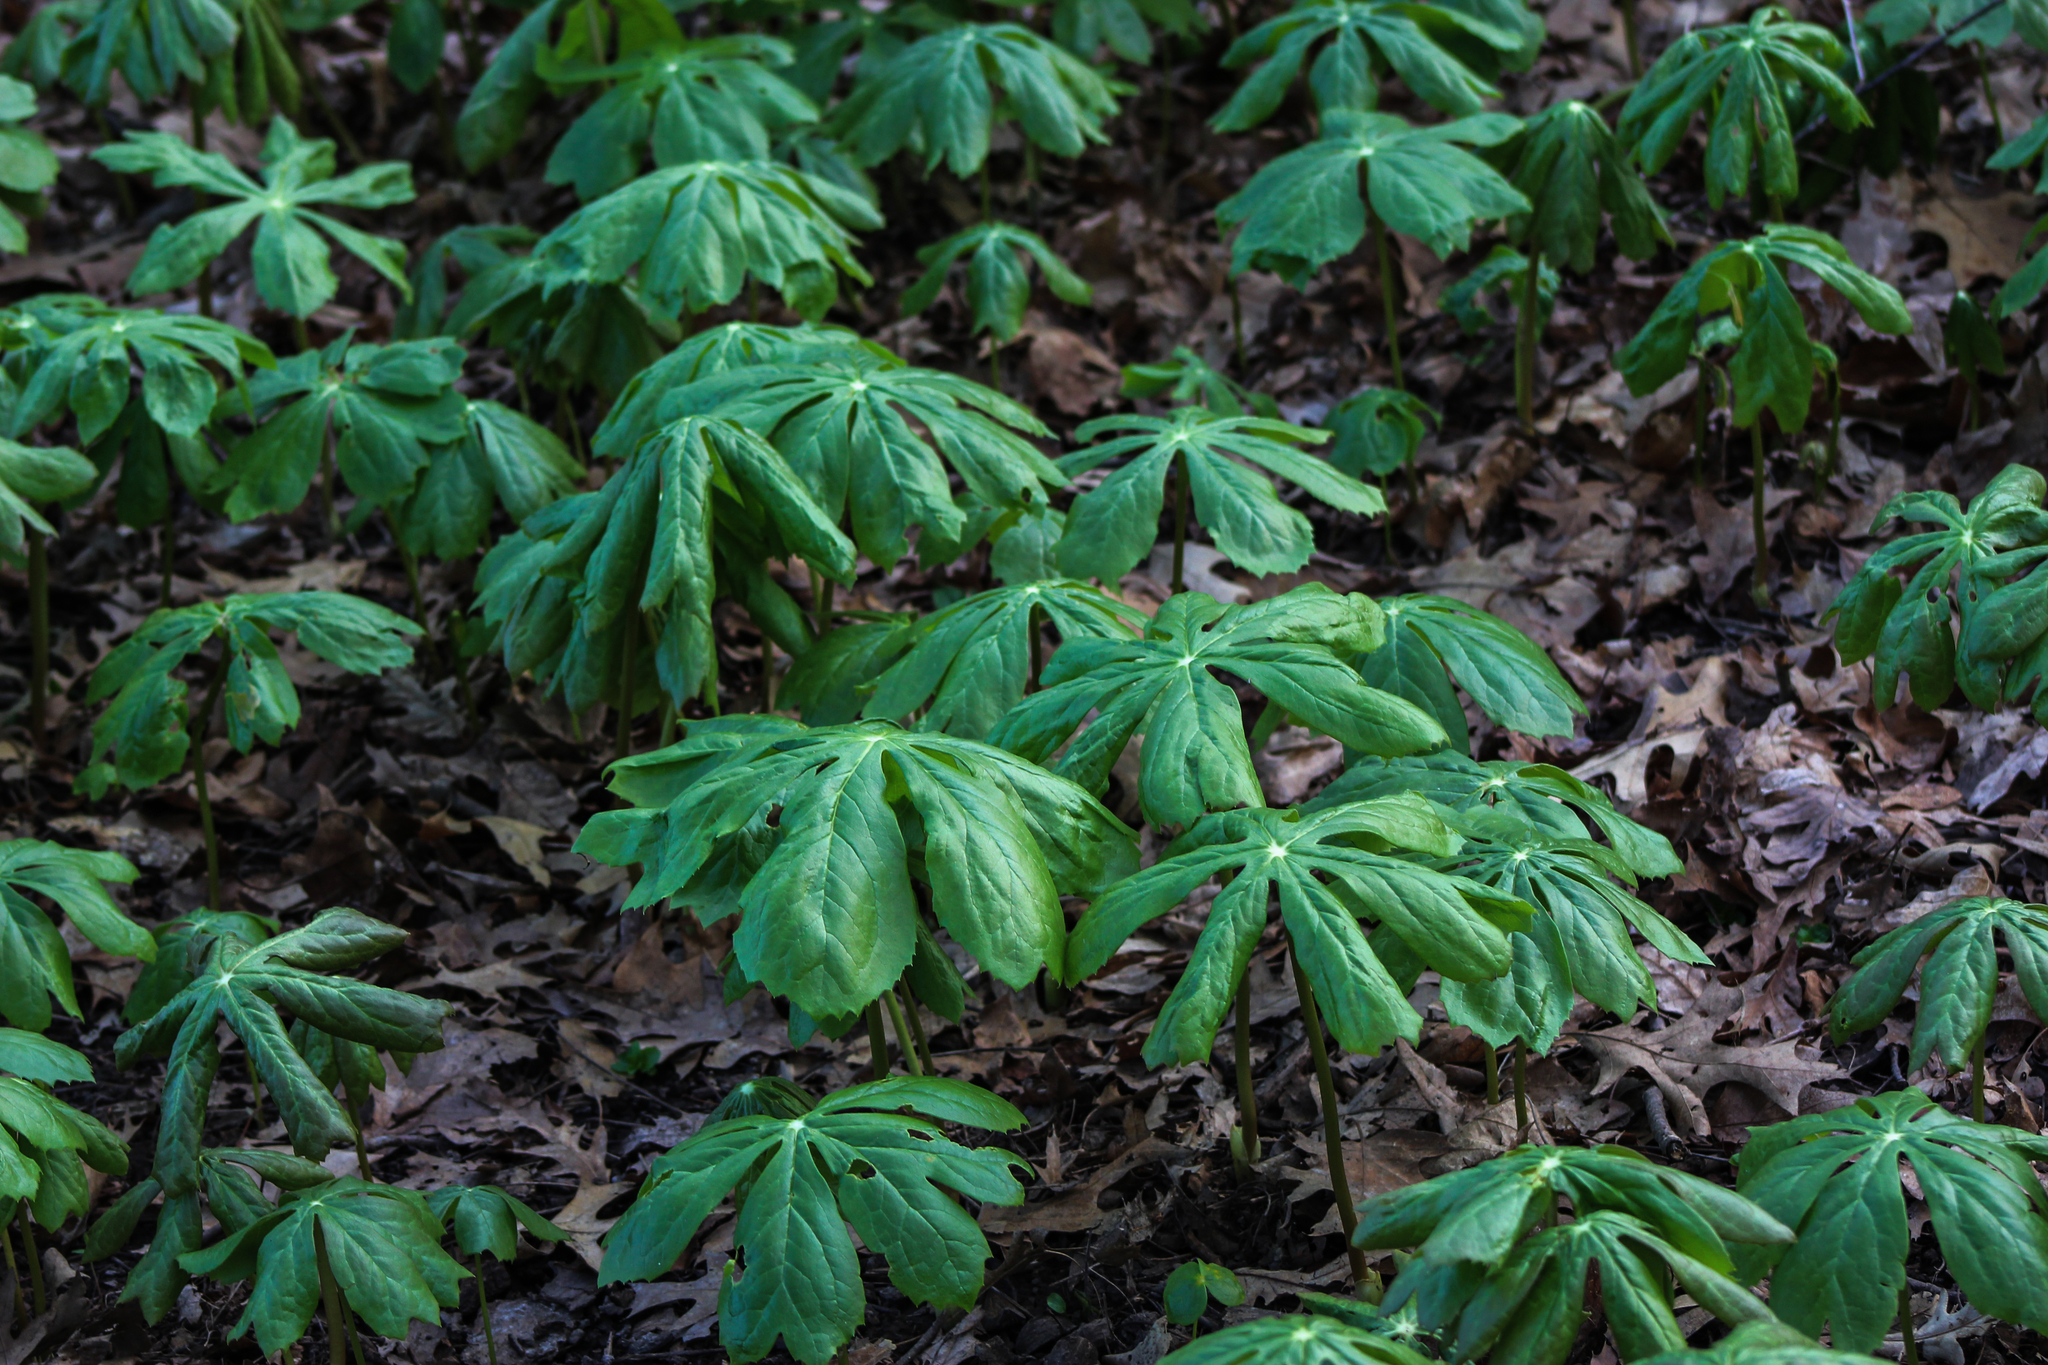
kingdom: Plantae
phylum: Tracheophyta
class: Magnoliopsida
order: Ranunculales
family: Berberidaceae
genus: Podophyllum
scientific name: Podophyllum peltatum
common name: Wild mandrake
